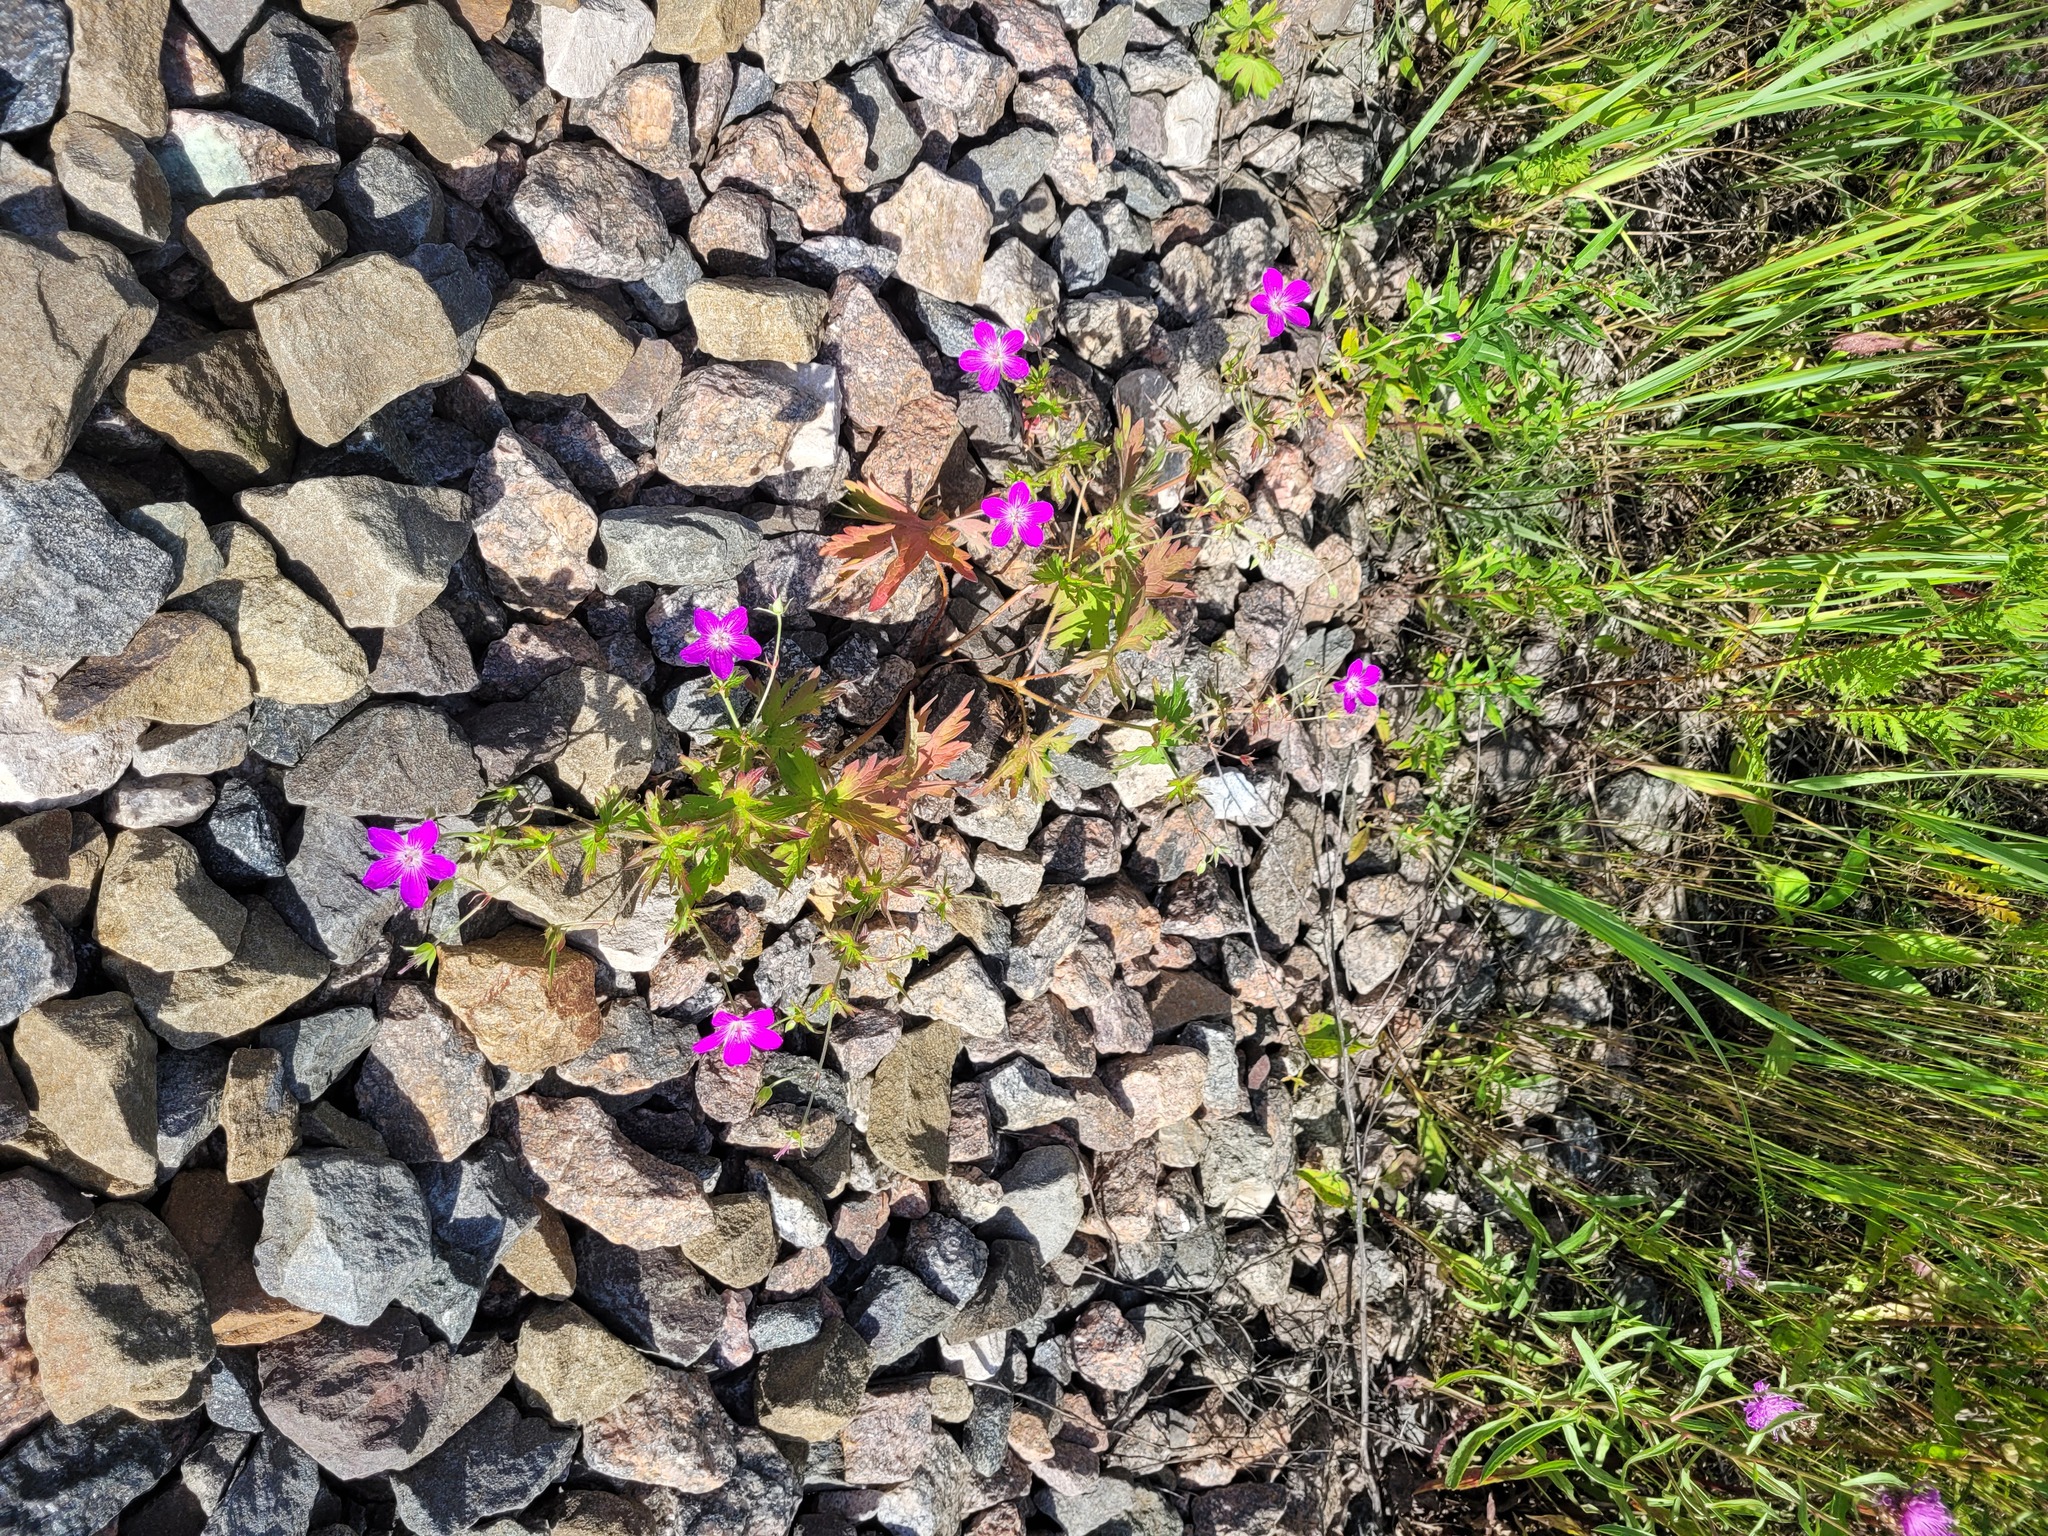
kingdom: Plantae
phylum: Tracheophyta
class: Magnoliopsida
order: Geraniales
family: Geraniaceae
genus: Geranium
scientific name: Geranium palustre
